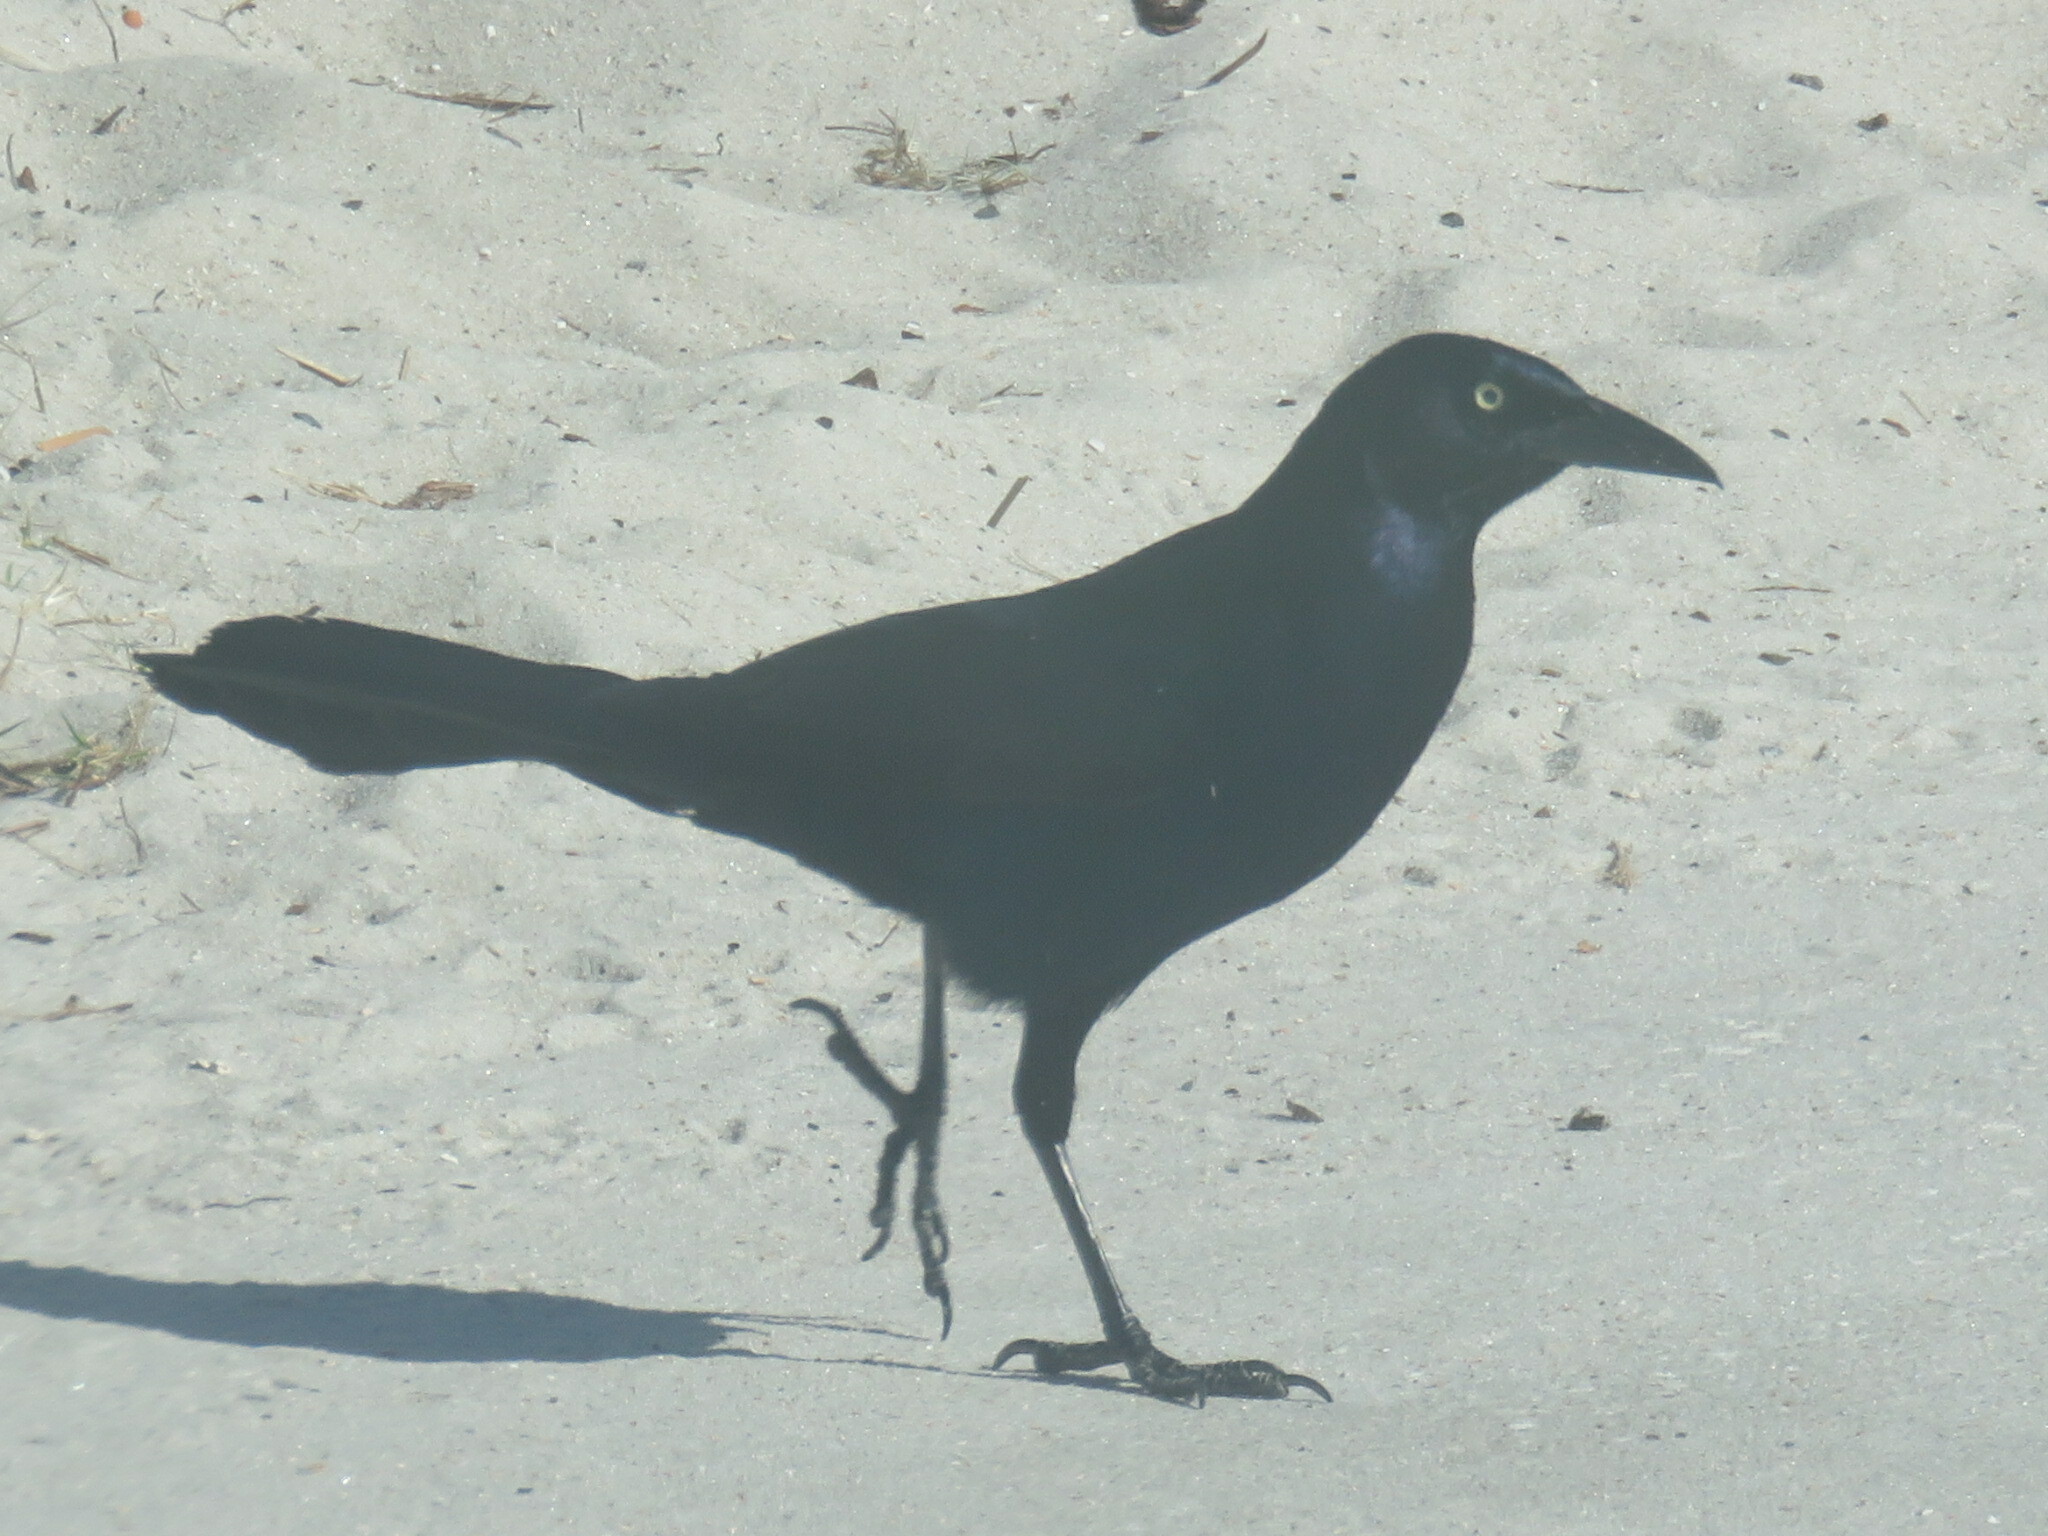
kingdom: Animalia
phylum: Chordata
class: Aves
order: Passeriformes
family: Icteridae
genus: Quiscalus
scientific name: Quiscalus major
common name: Boat-tailed grackle
